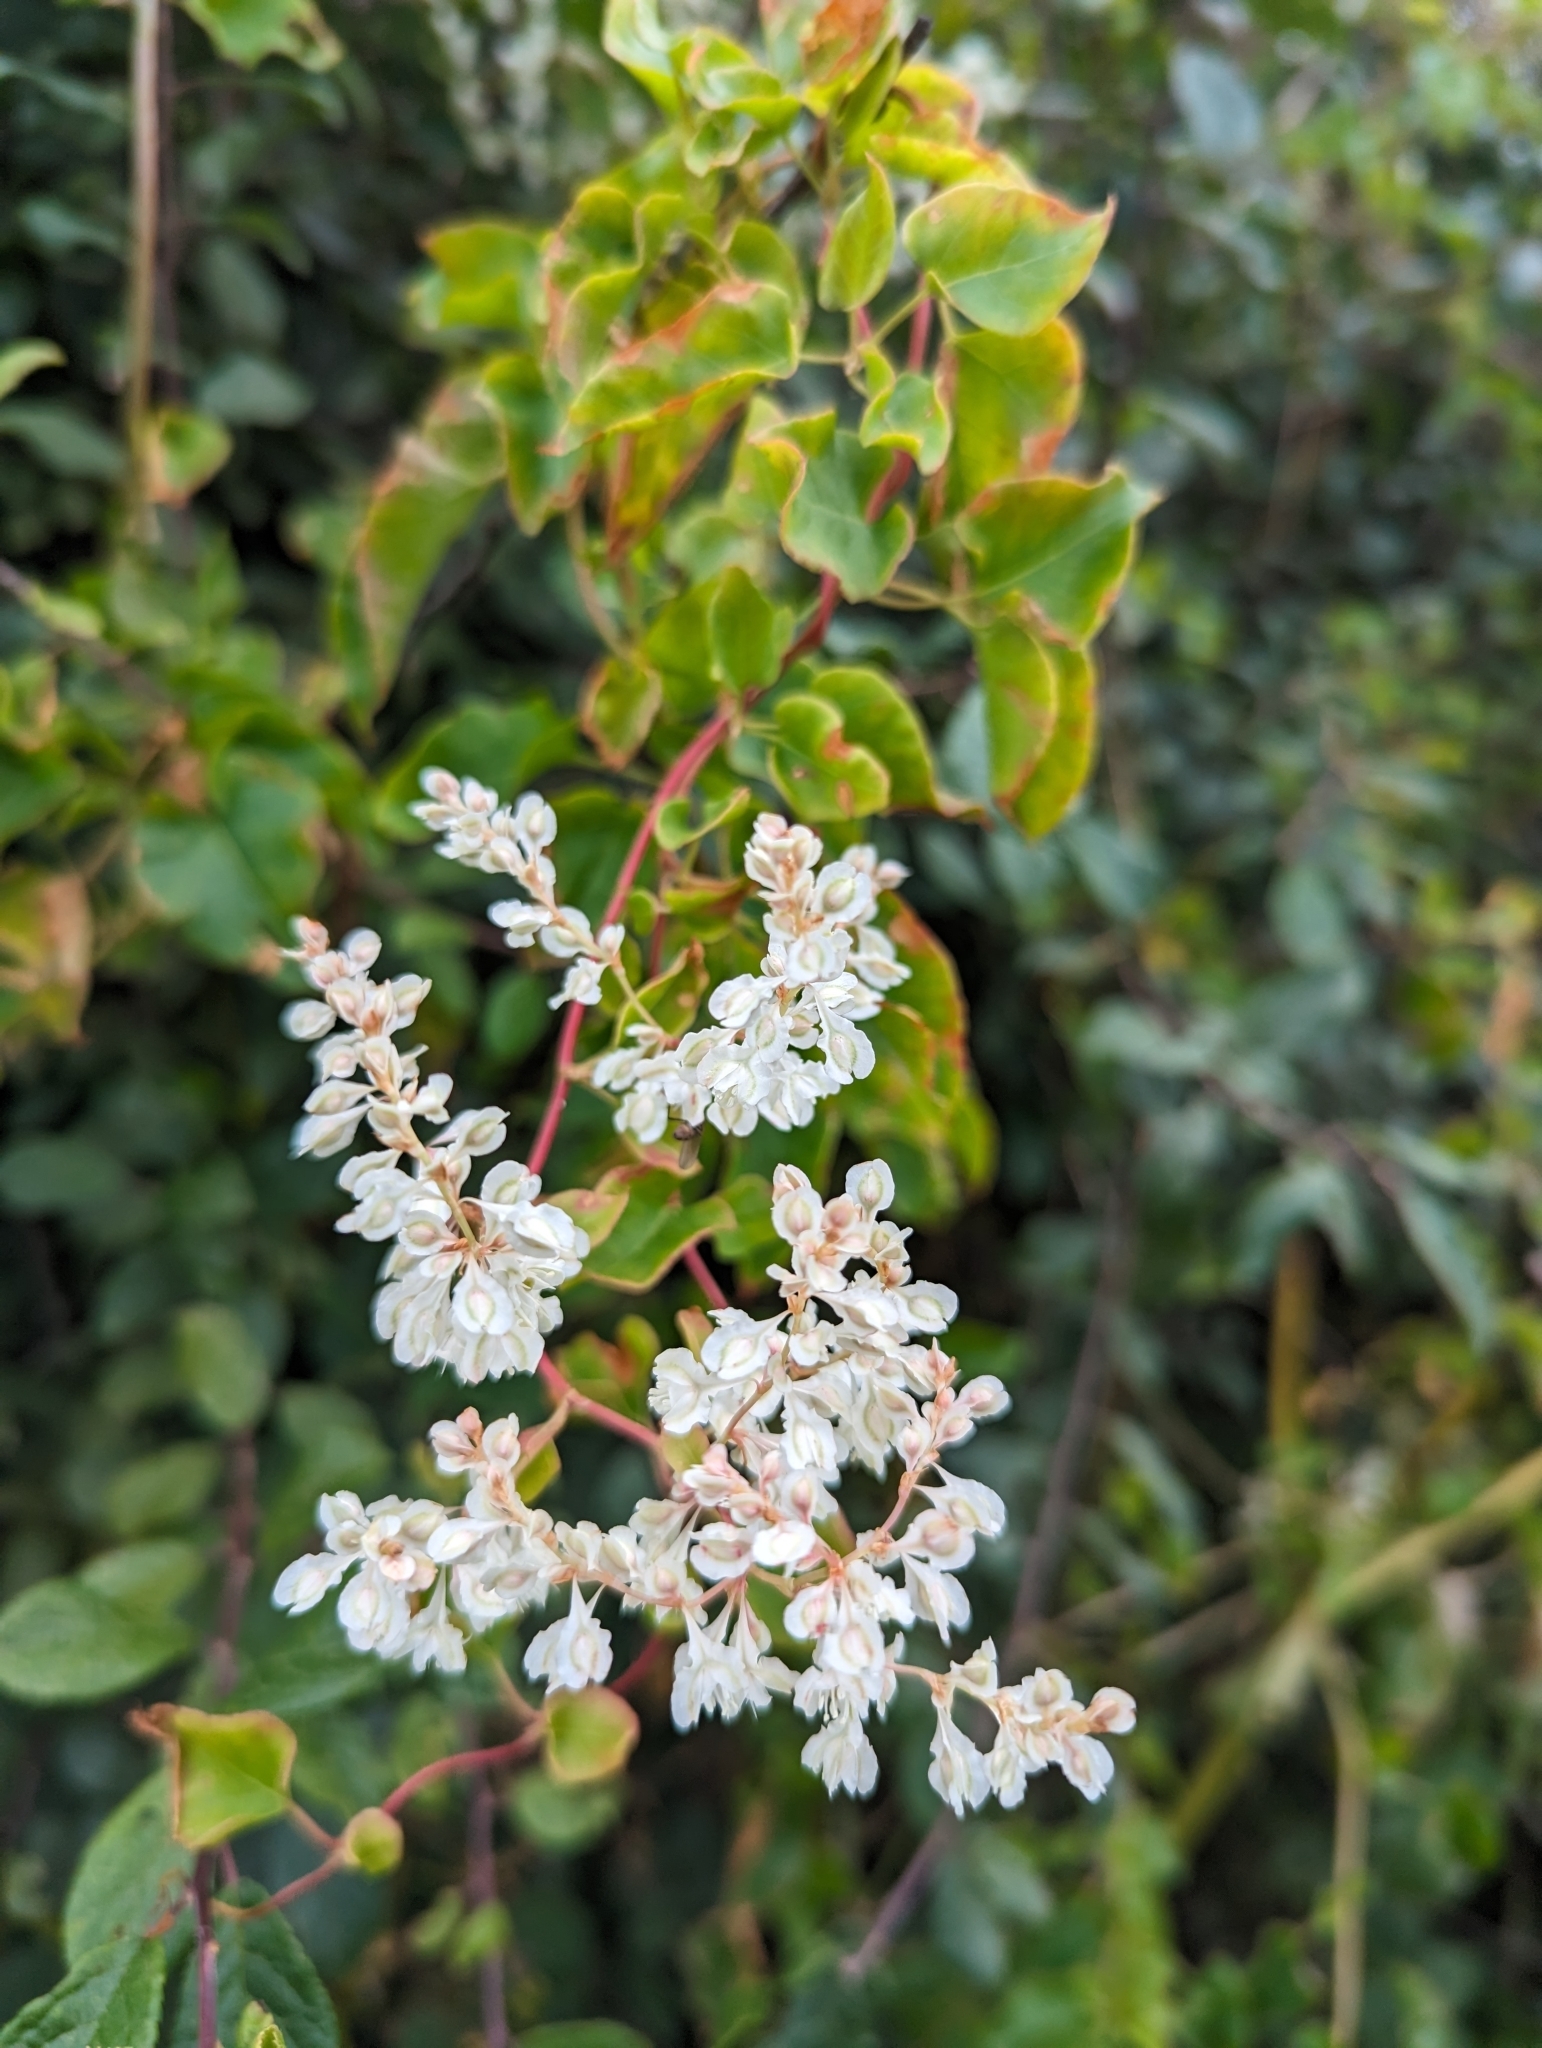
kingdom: Plantae
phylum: Tracheophyta
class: Magnoliopsida
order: Caryophyllales
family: Polygonaceae
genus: Fallopia
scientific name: Fallopia baldschuanica
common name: Russian-vine
